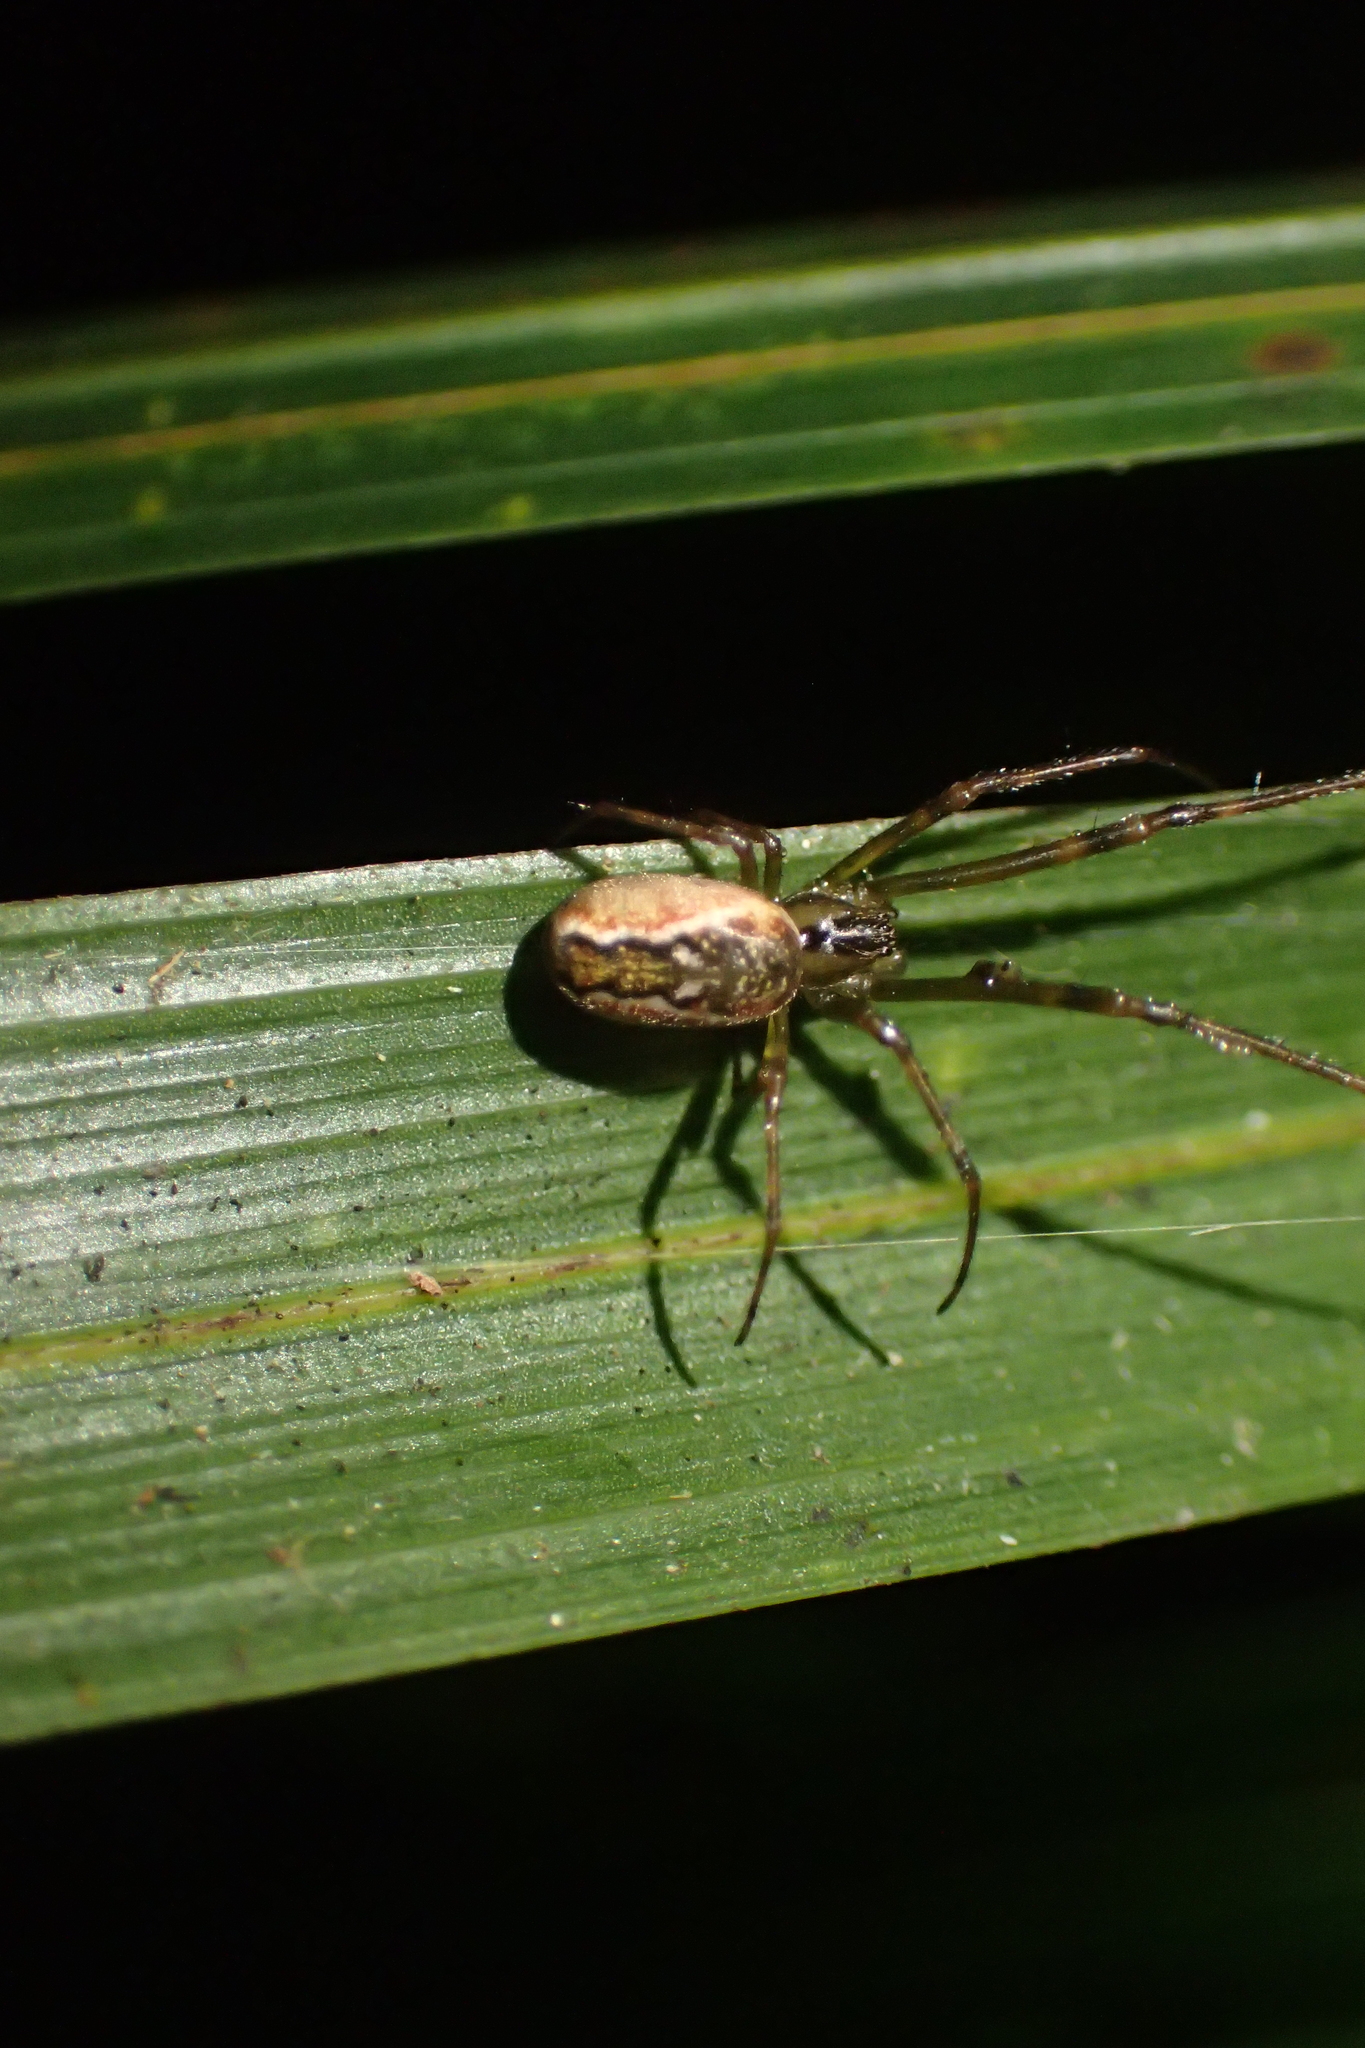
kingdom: Animalia
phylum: Arthropoda
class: Arachnida
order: Araneae
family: Tetragnathidae
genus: Nanometa
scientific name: Nanometa lagenifera
